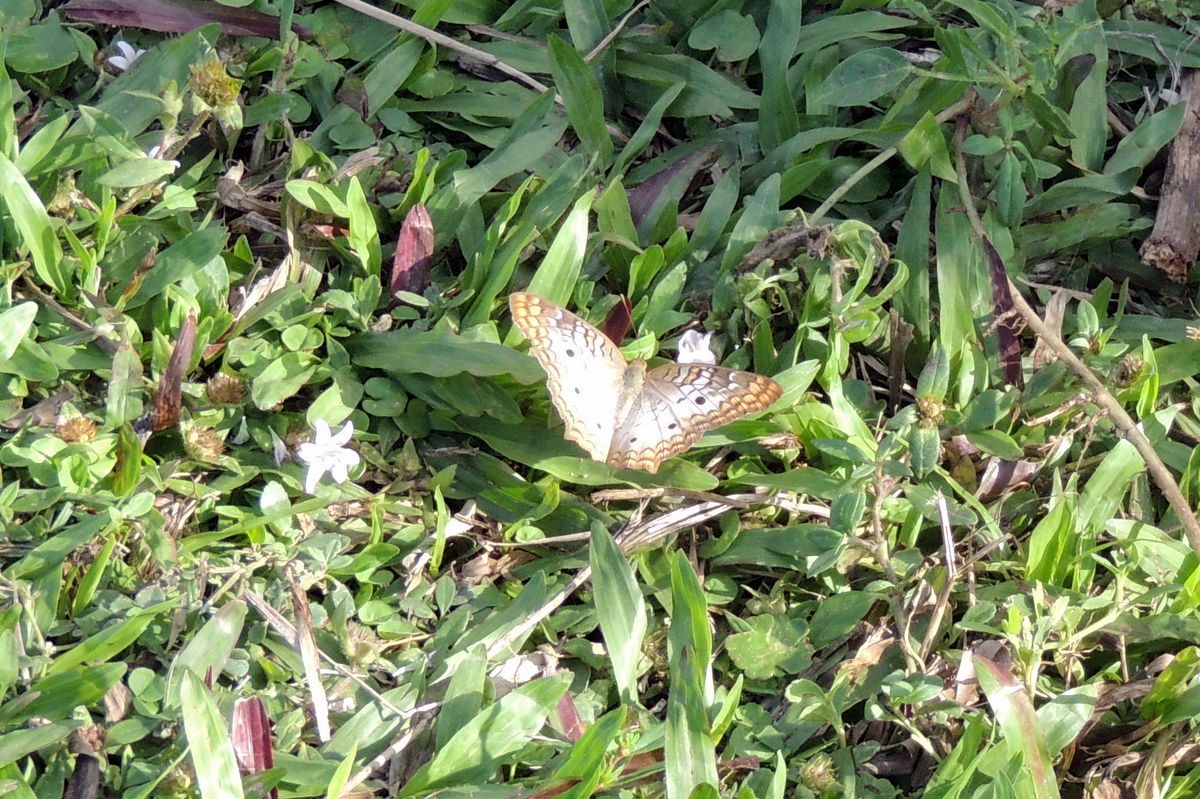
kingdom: Animalia
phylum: Arthropoda
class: Insecta
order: Lepidoptera
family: Nymphalidae
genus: Anartia
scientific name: Anartia jatrophae
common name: White peacock
